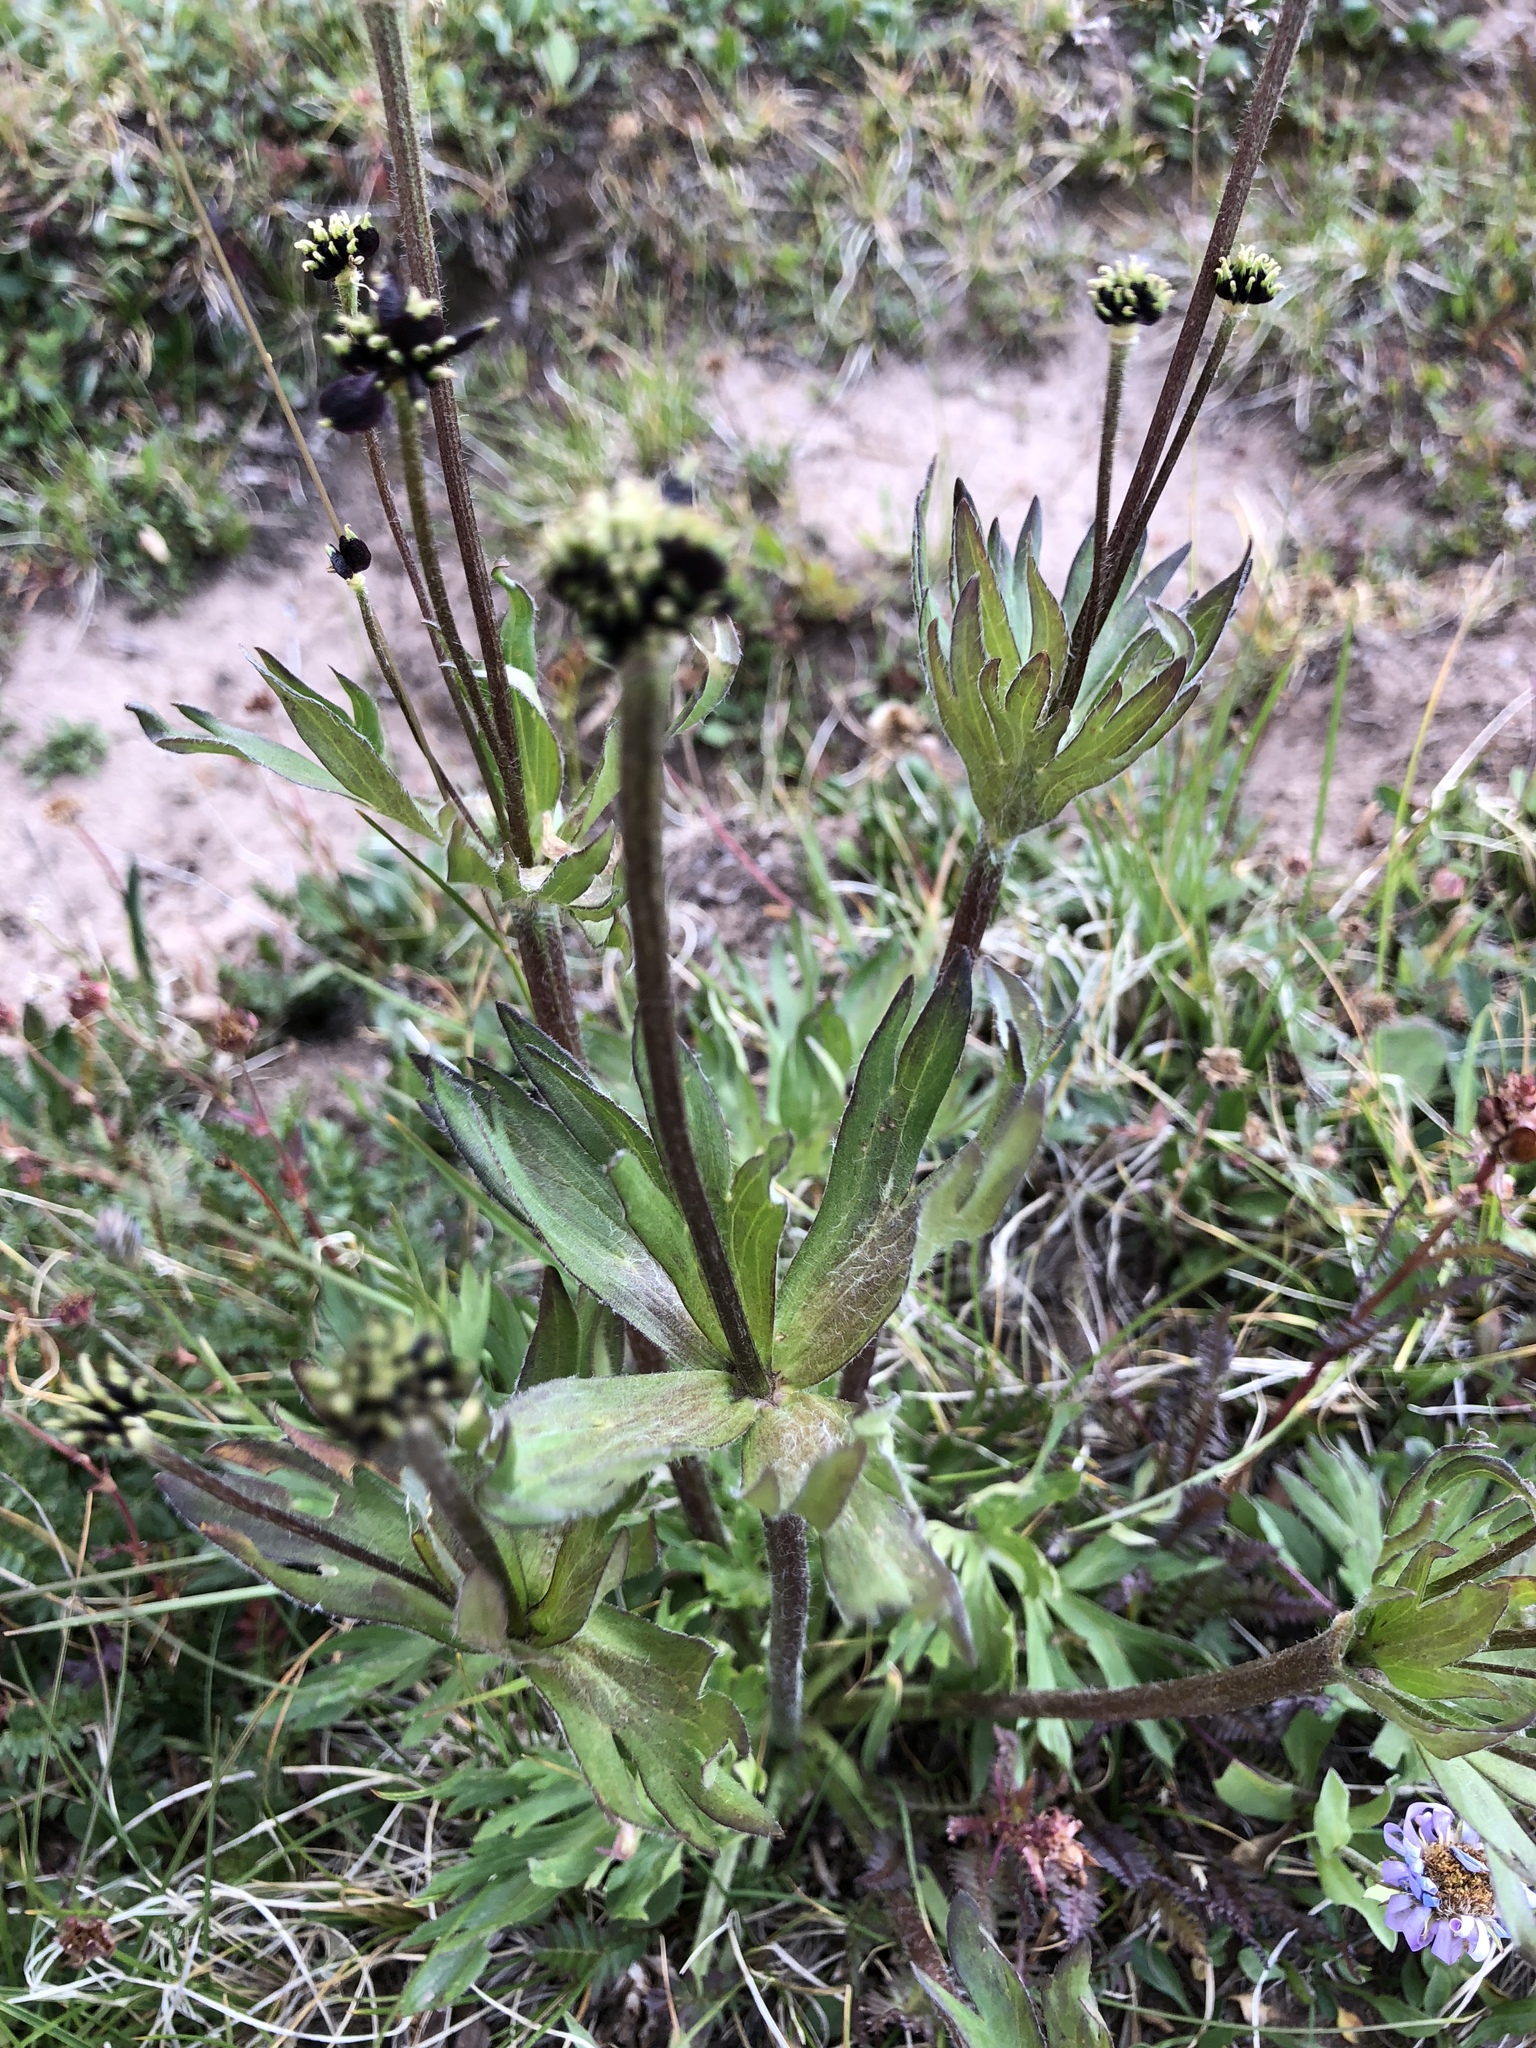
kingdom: Plantae
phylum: Tracheophyta
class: Magnoliopsida
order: Ranunculales
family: Ranunculaceae
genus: Anemonastrum
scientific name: Anemonastrum narcissiflorum
